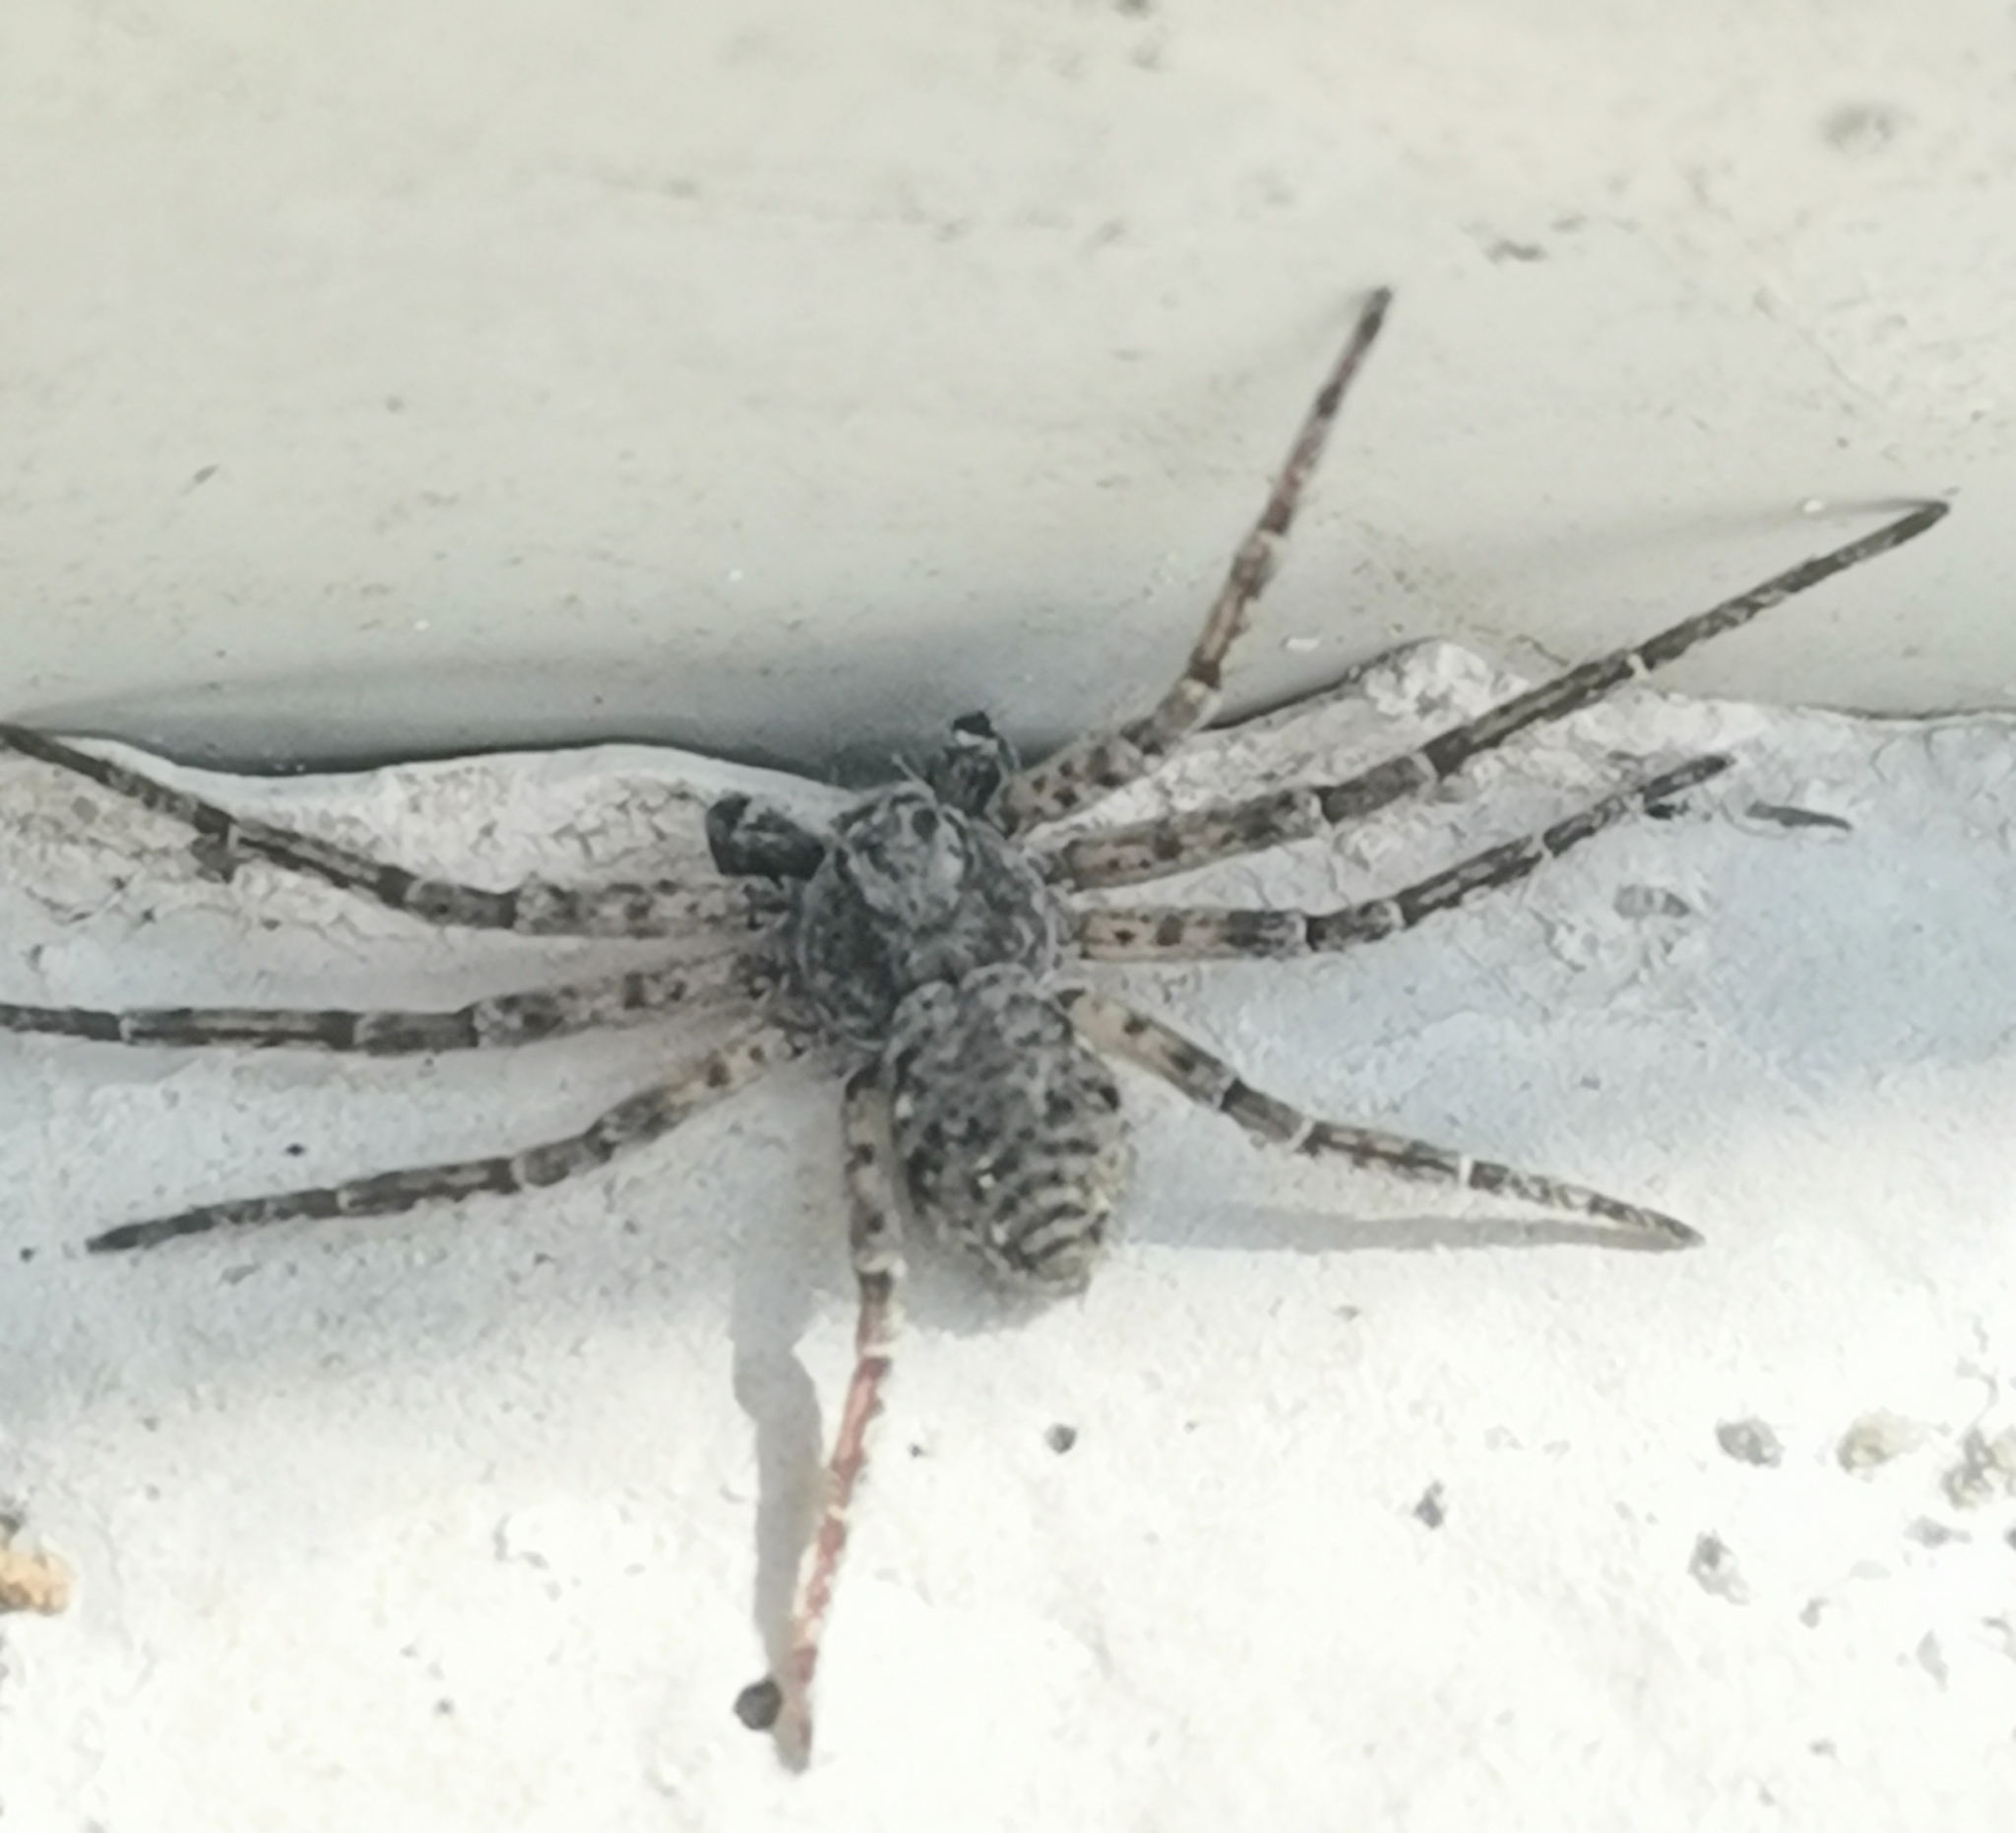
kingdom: Animalia
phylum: Arthropoda
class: Arachnida
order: Araneae
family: Philodromidae
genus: Philodromus
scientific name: Philodromus emarginatus
